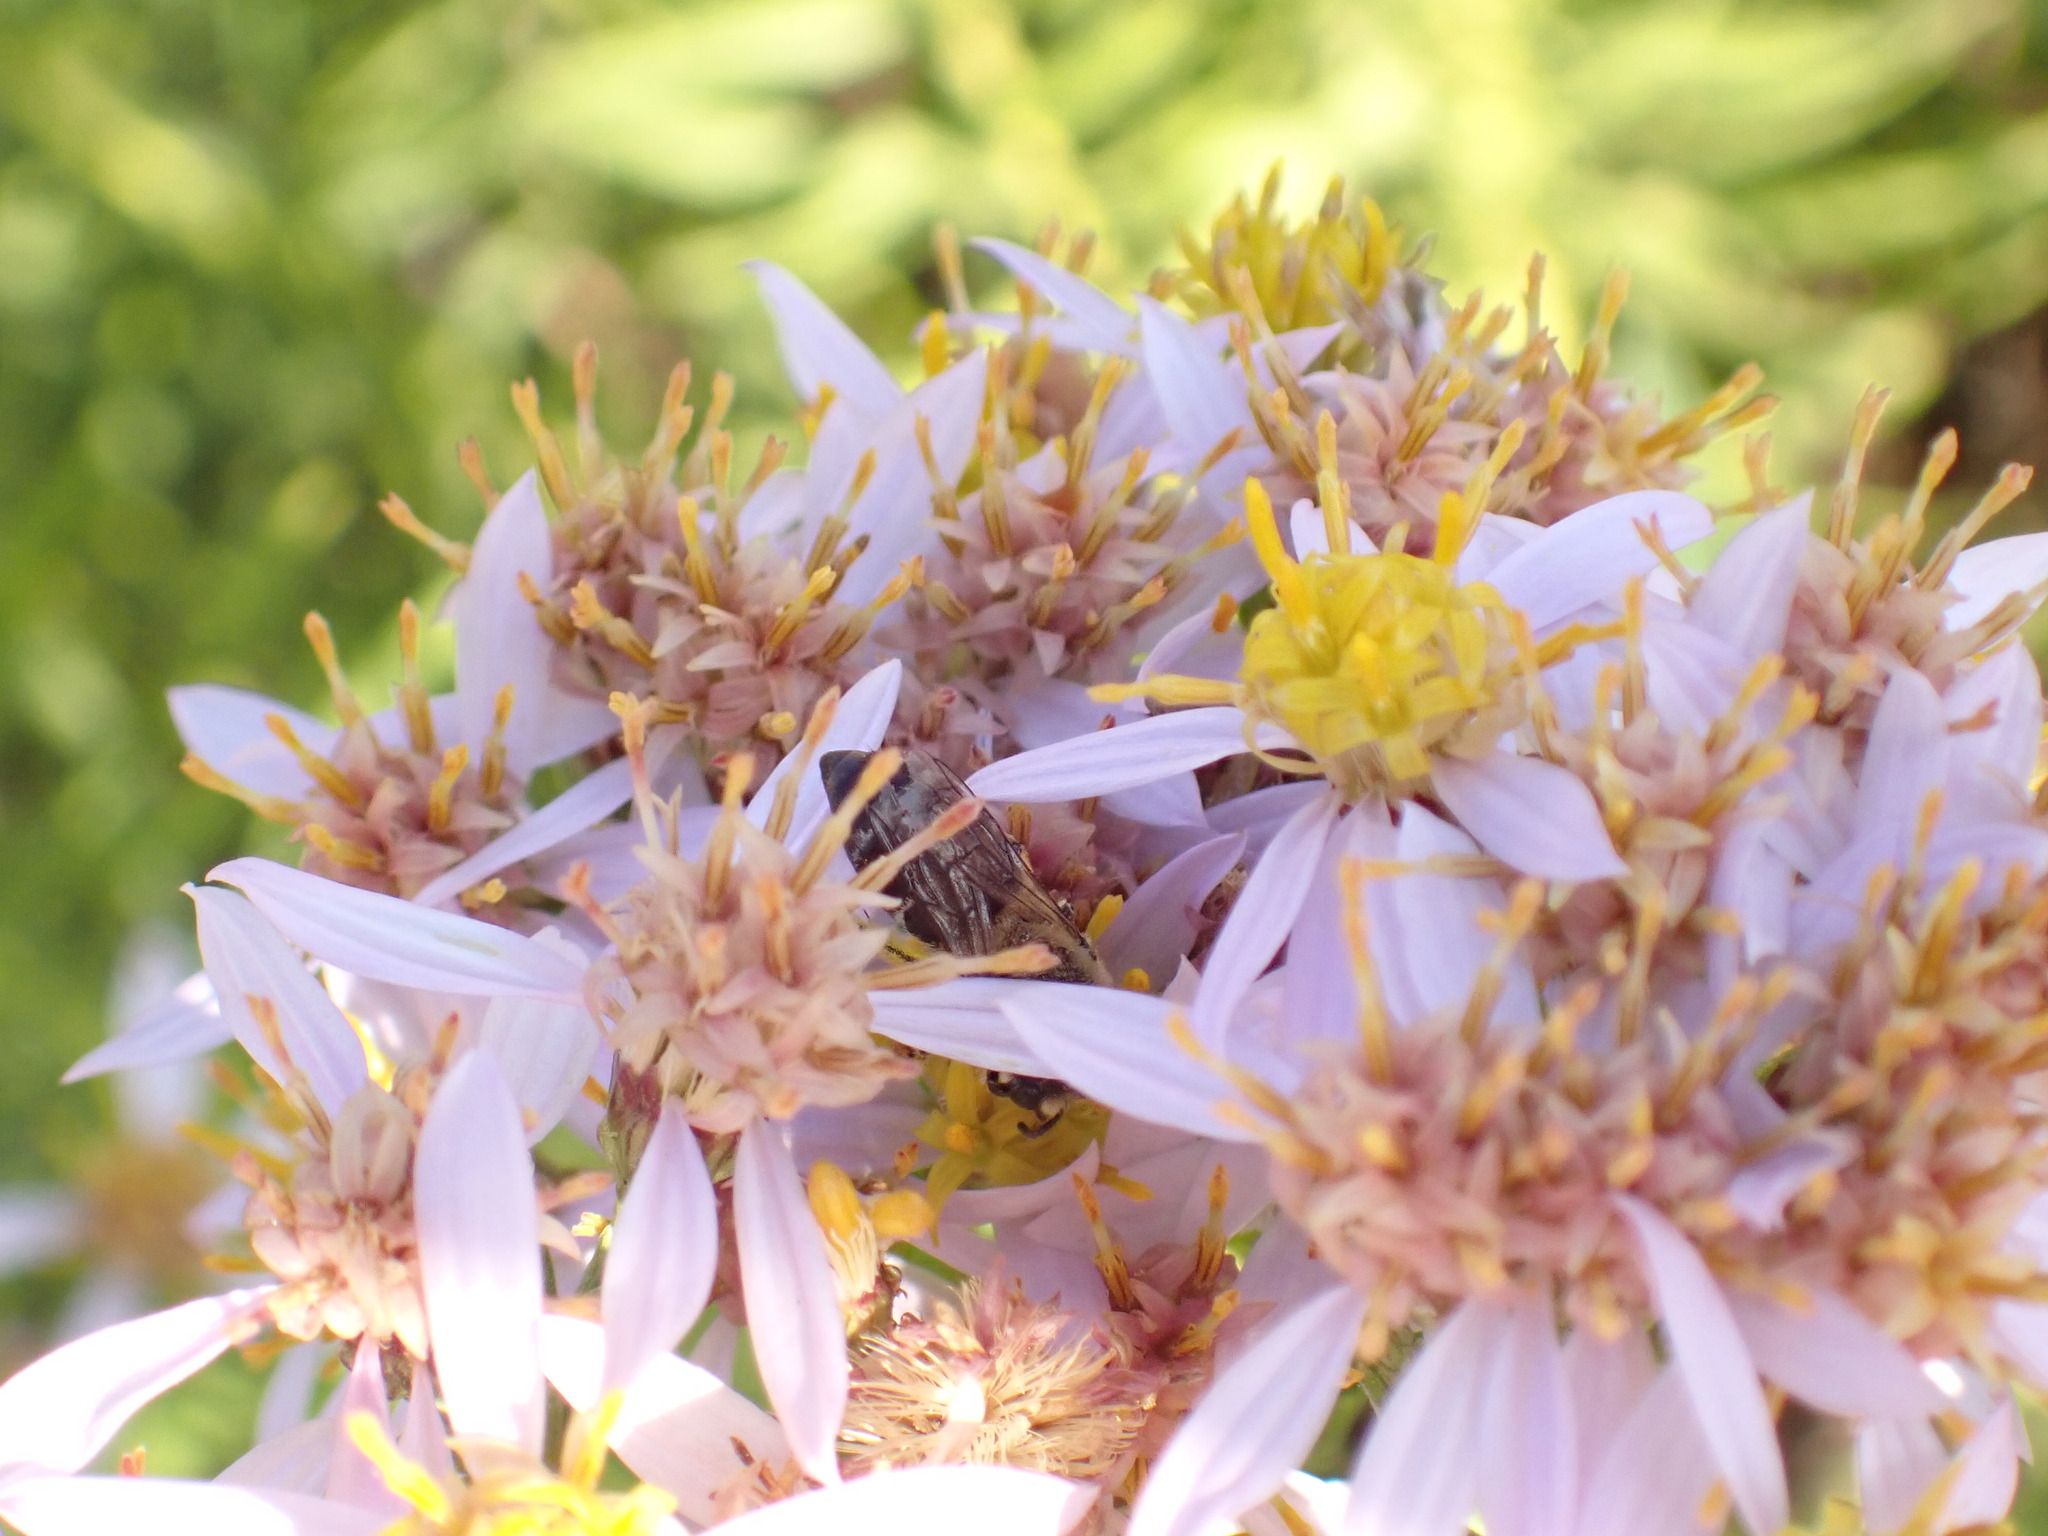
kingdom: Plantae
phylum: Tracheophyta
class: Magnoliopsida
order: Asterales
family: Asteraceae
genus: Galatella
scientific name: Galatella sedifolia
